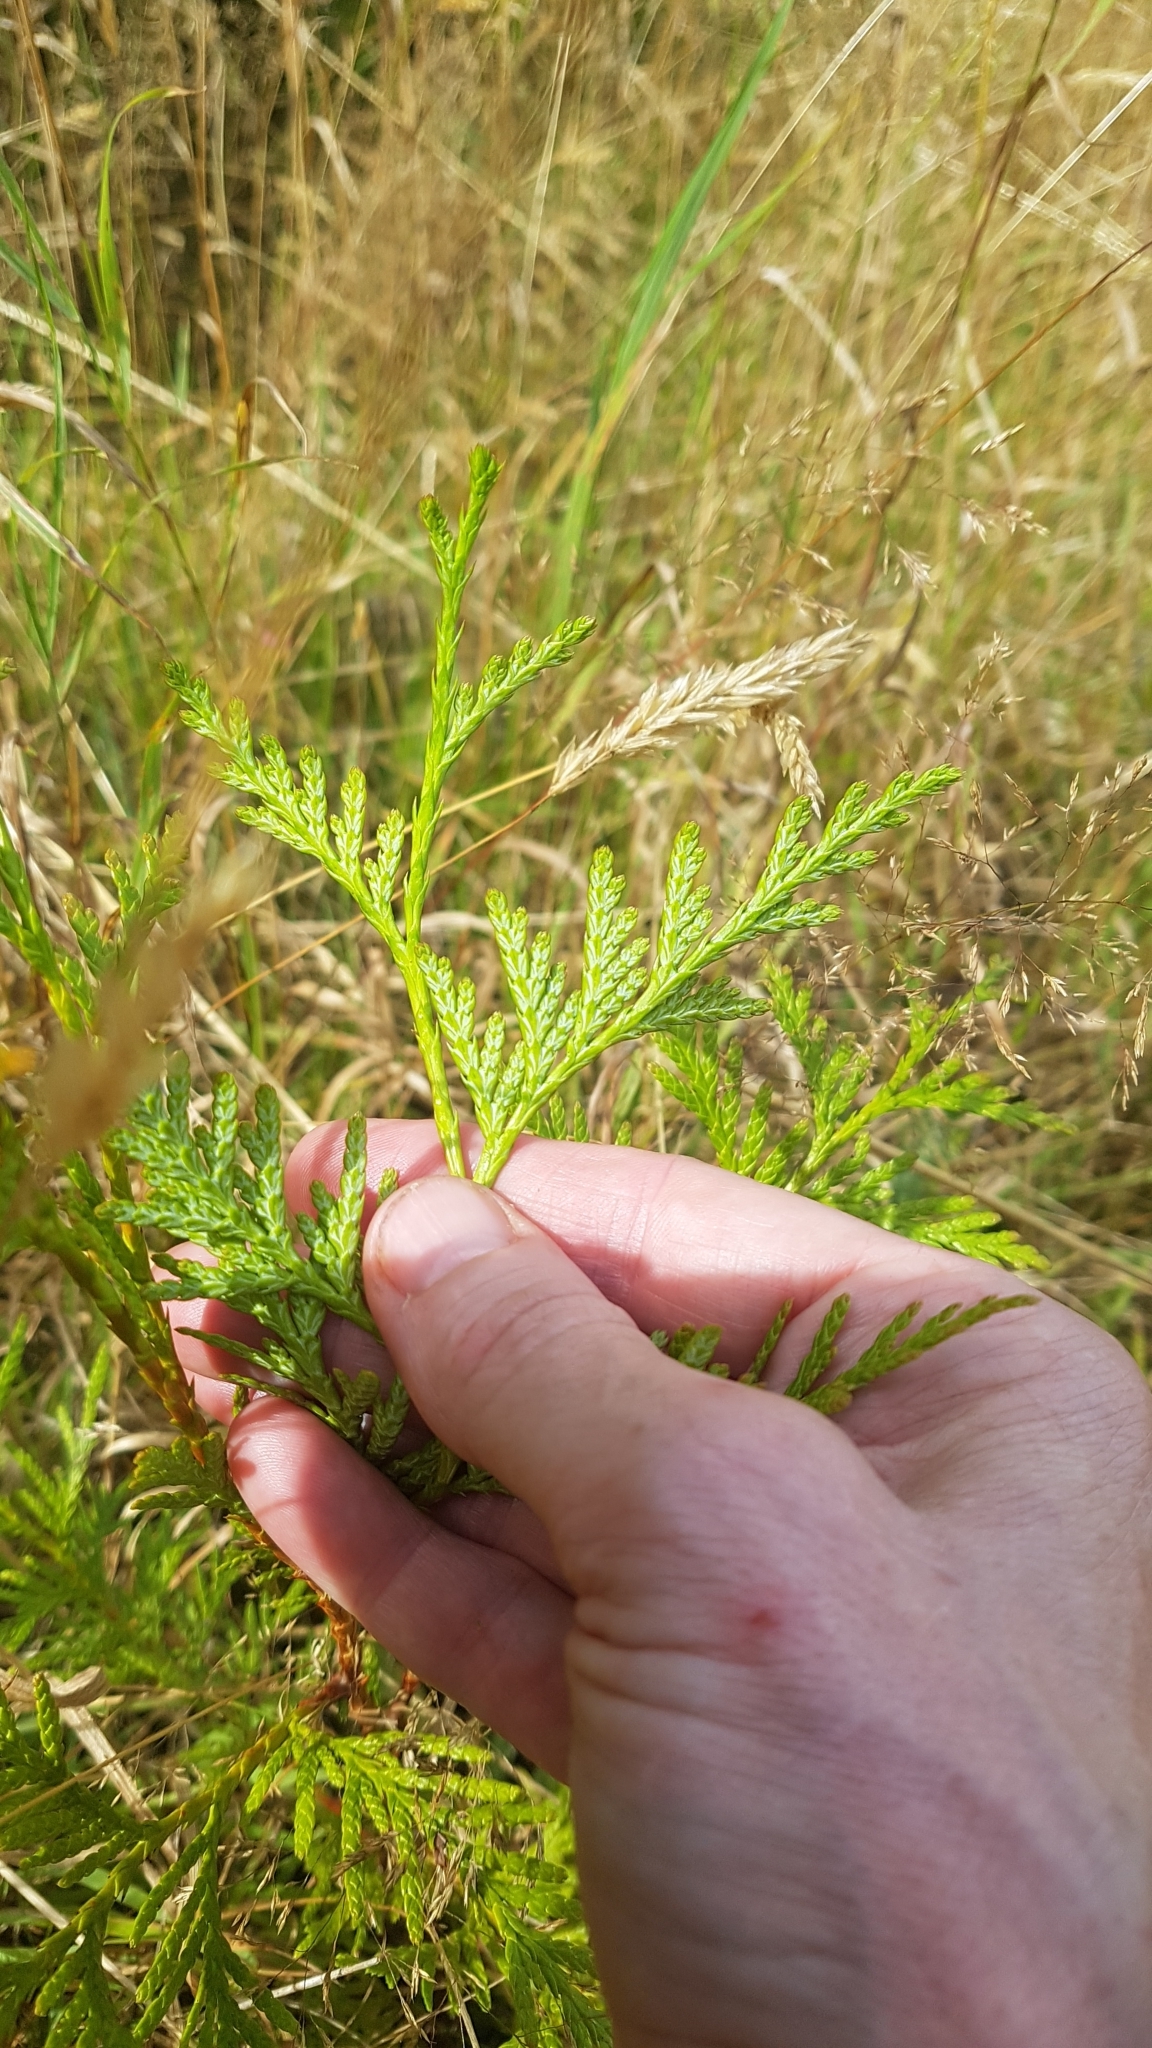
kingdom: Plantae
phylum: Tracheophyta
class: Pinopsida
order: Pinales
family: Cupressaceae
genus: Chamaecyparis
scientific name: Chamaecyparis lawsoniana
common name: Lawson's cypress
